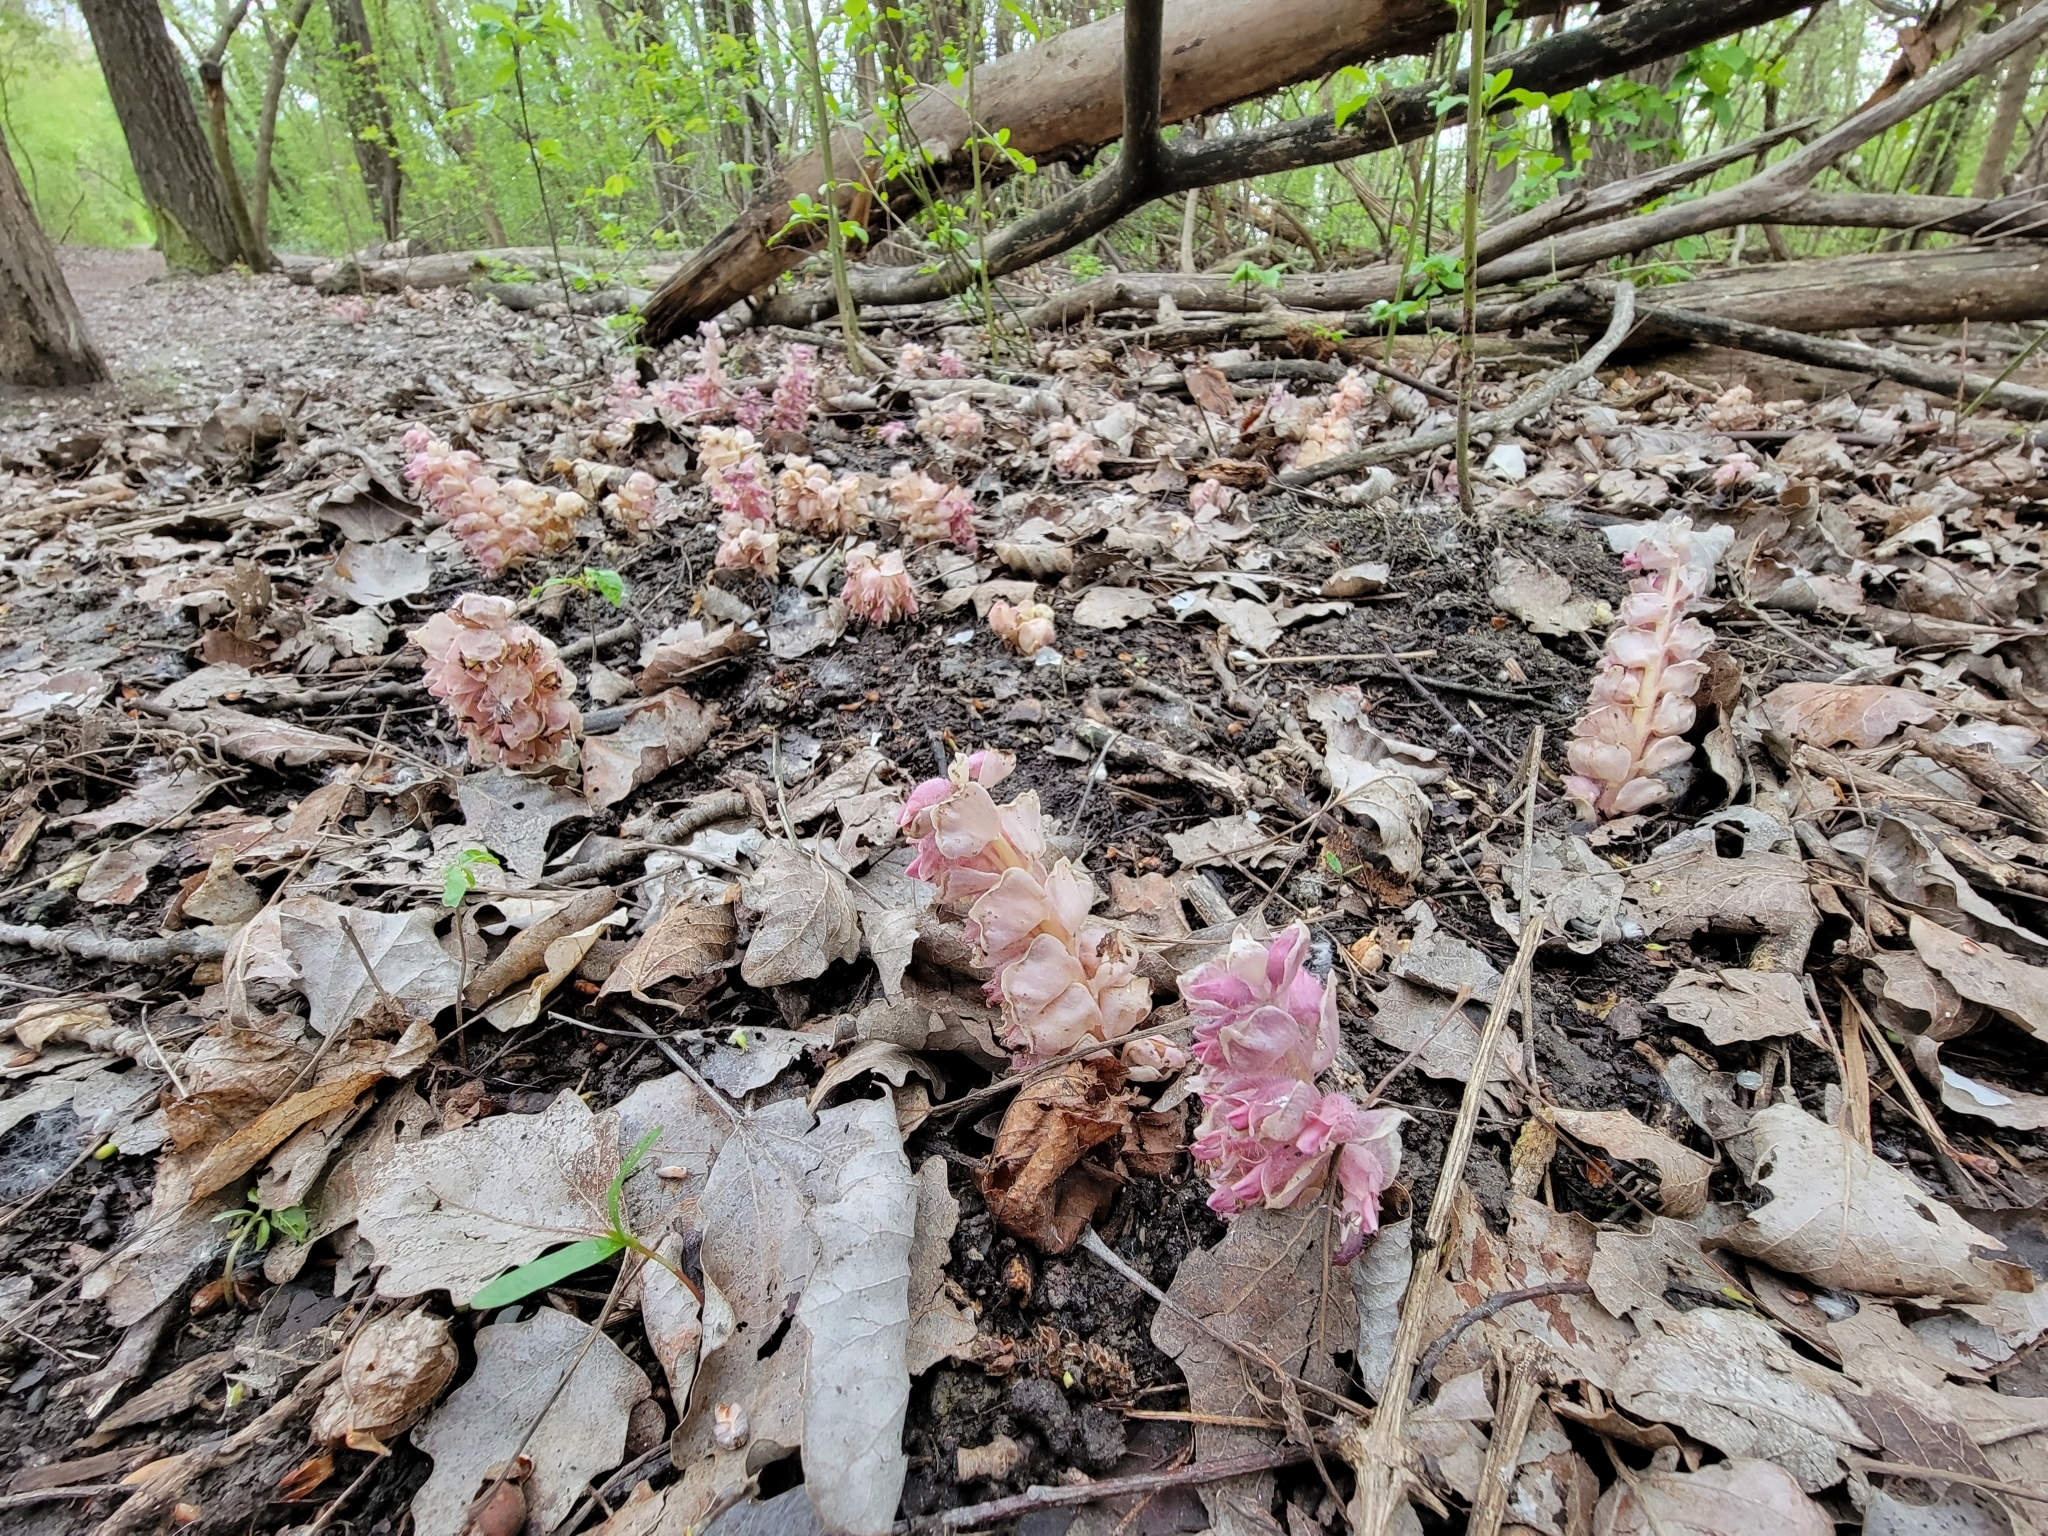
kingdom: Plantae
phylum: Tracheophyta
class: Magnoliopsida
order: Lamiales
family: Orobanchaceae
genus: Lathraea
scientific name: Lathraea squamaria
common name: Toothwort
